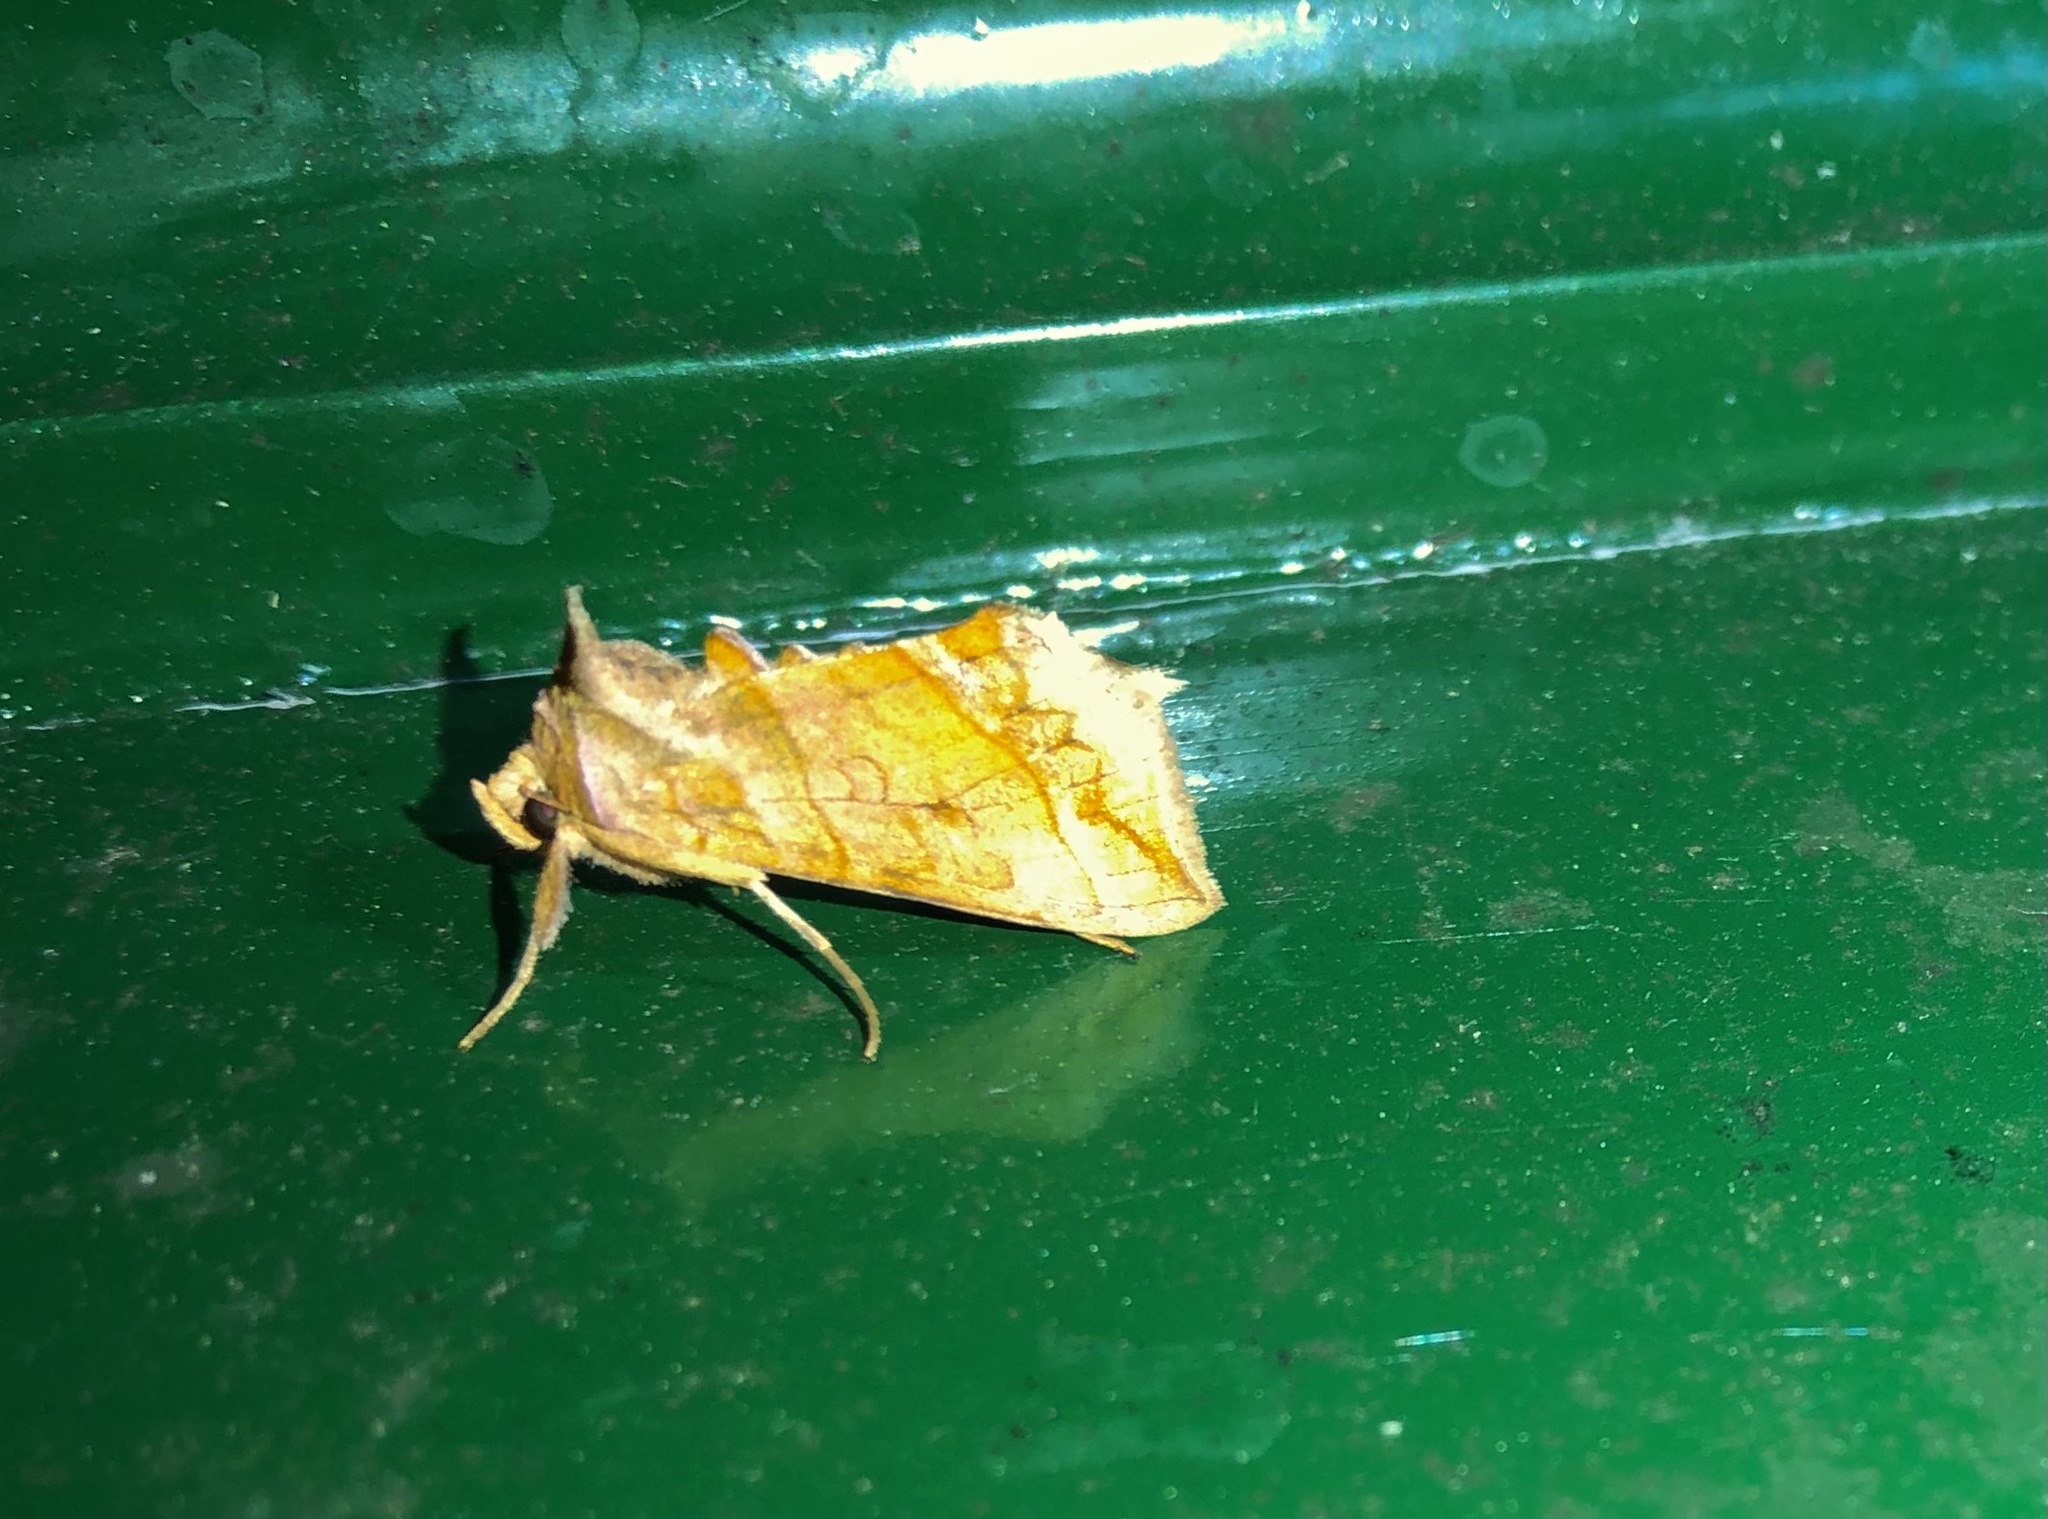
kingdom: Animalia
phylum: Arthropoda
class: Insecta
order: Lepidoptera
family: Noctuidae
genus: Diachrysia
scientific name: Diachrysia aereoides
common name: Dark-spotted looper moth
